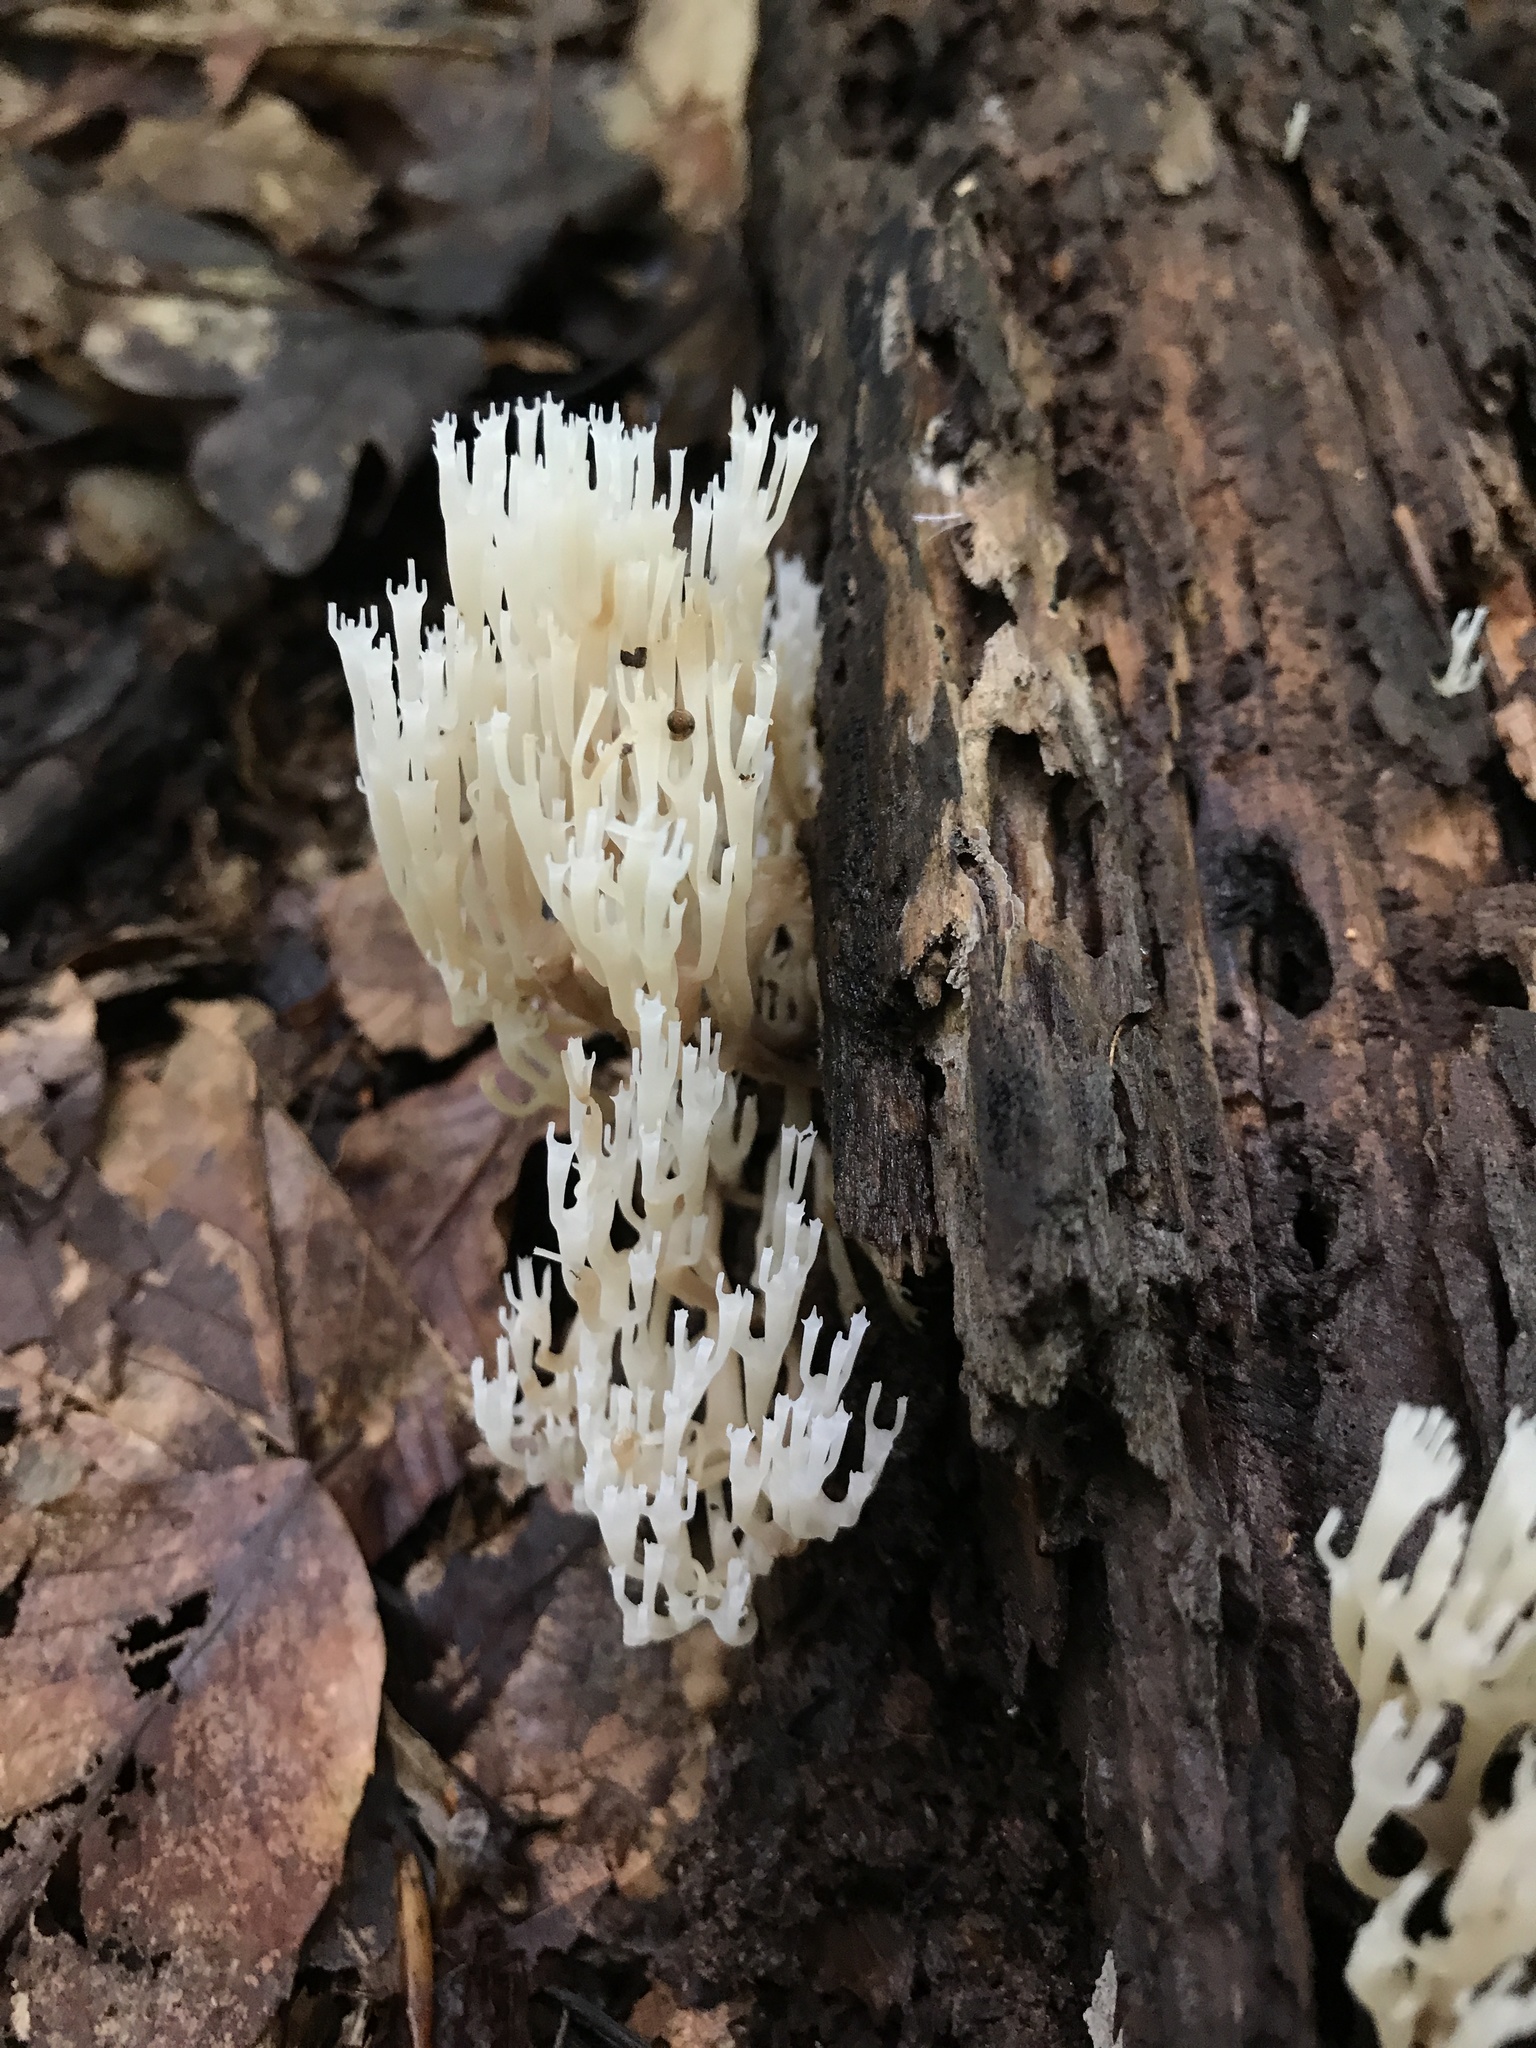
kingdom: Fungi
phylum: Basidiomycota
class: Agaricomycetes
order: Russulales
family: Auriscalpiaceae
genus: Artomyces
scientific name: Artomyces pyxidatus
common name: Crown-tipped coral fungus
